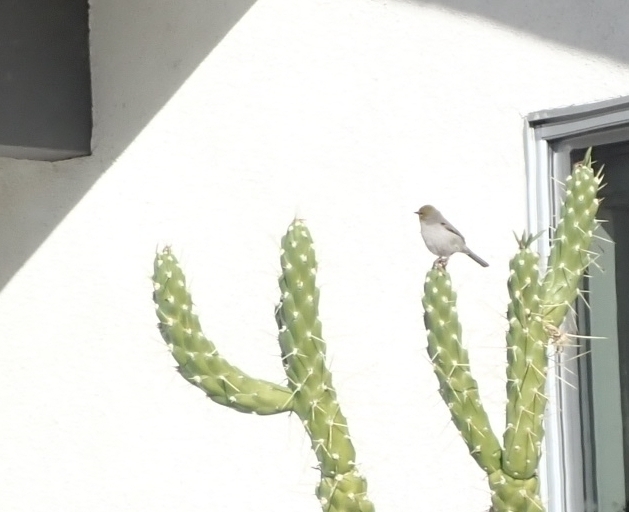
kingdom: Animalia
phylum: Chordata
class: Aves
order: Passeriformes
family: Remizidae
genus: Auriparus
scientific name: Auriparus flaviceps
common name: Verdin
